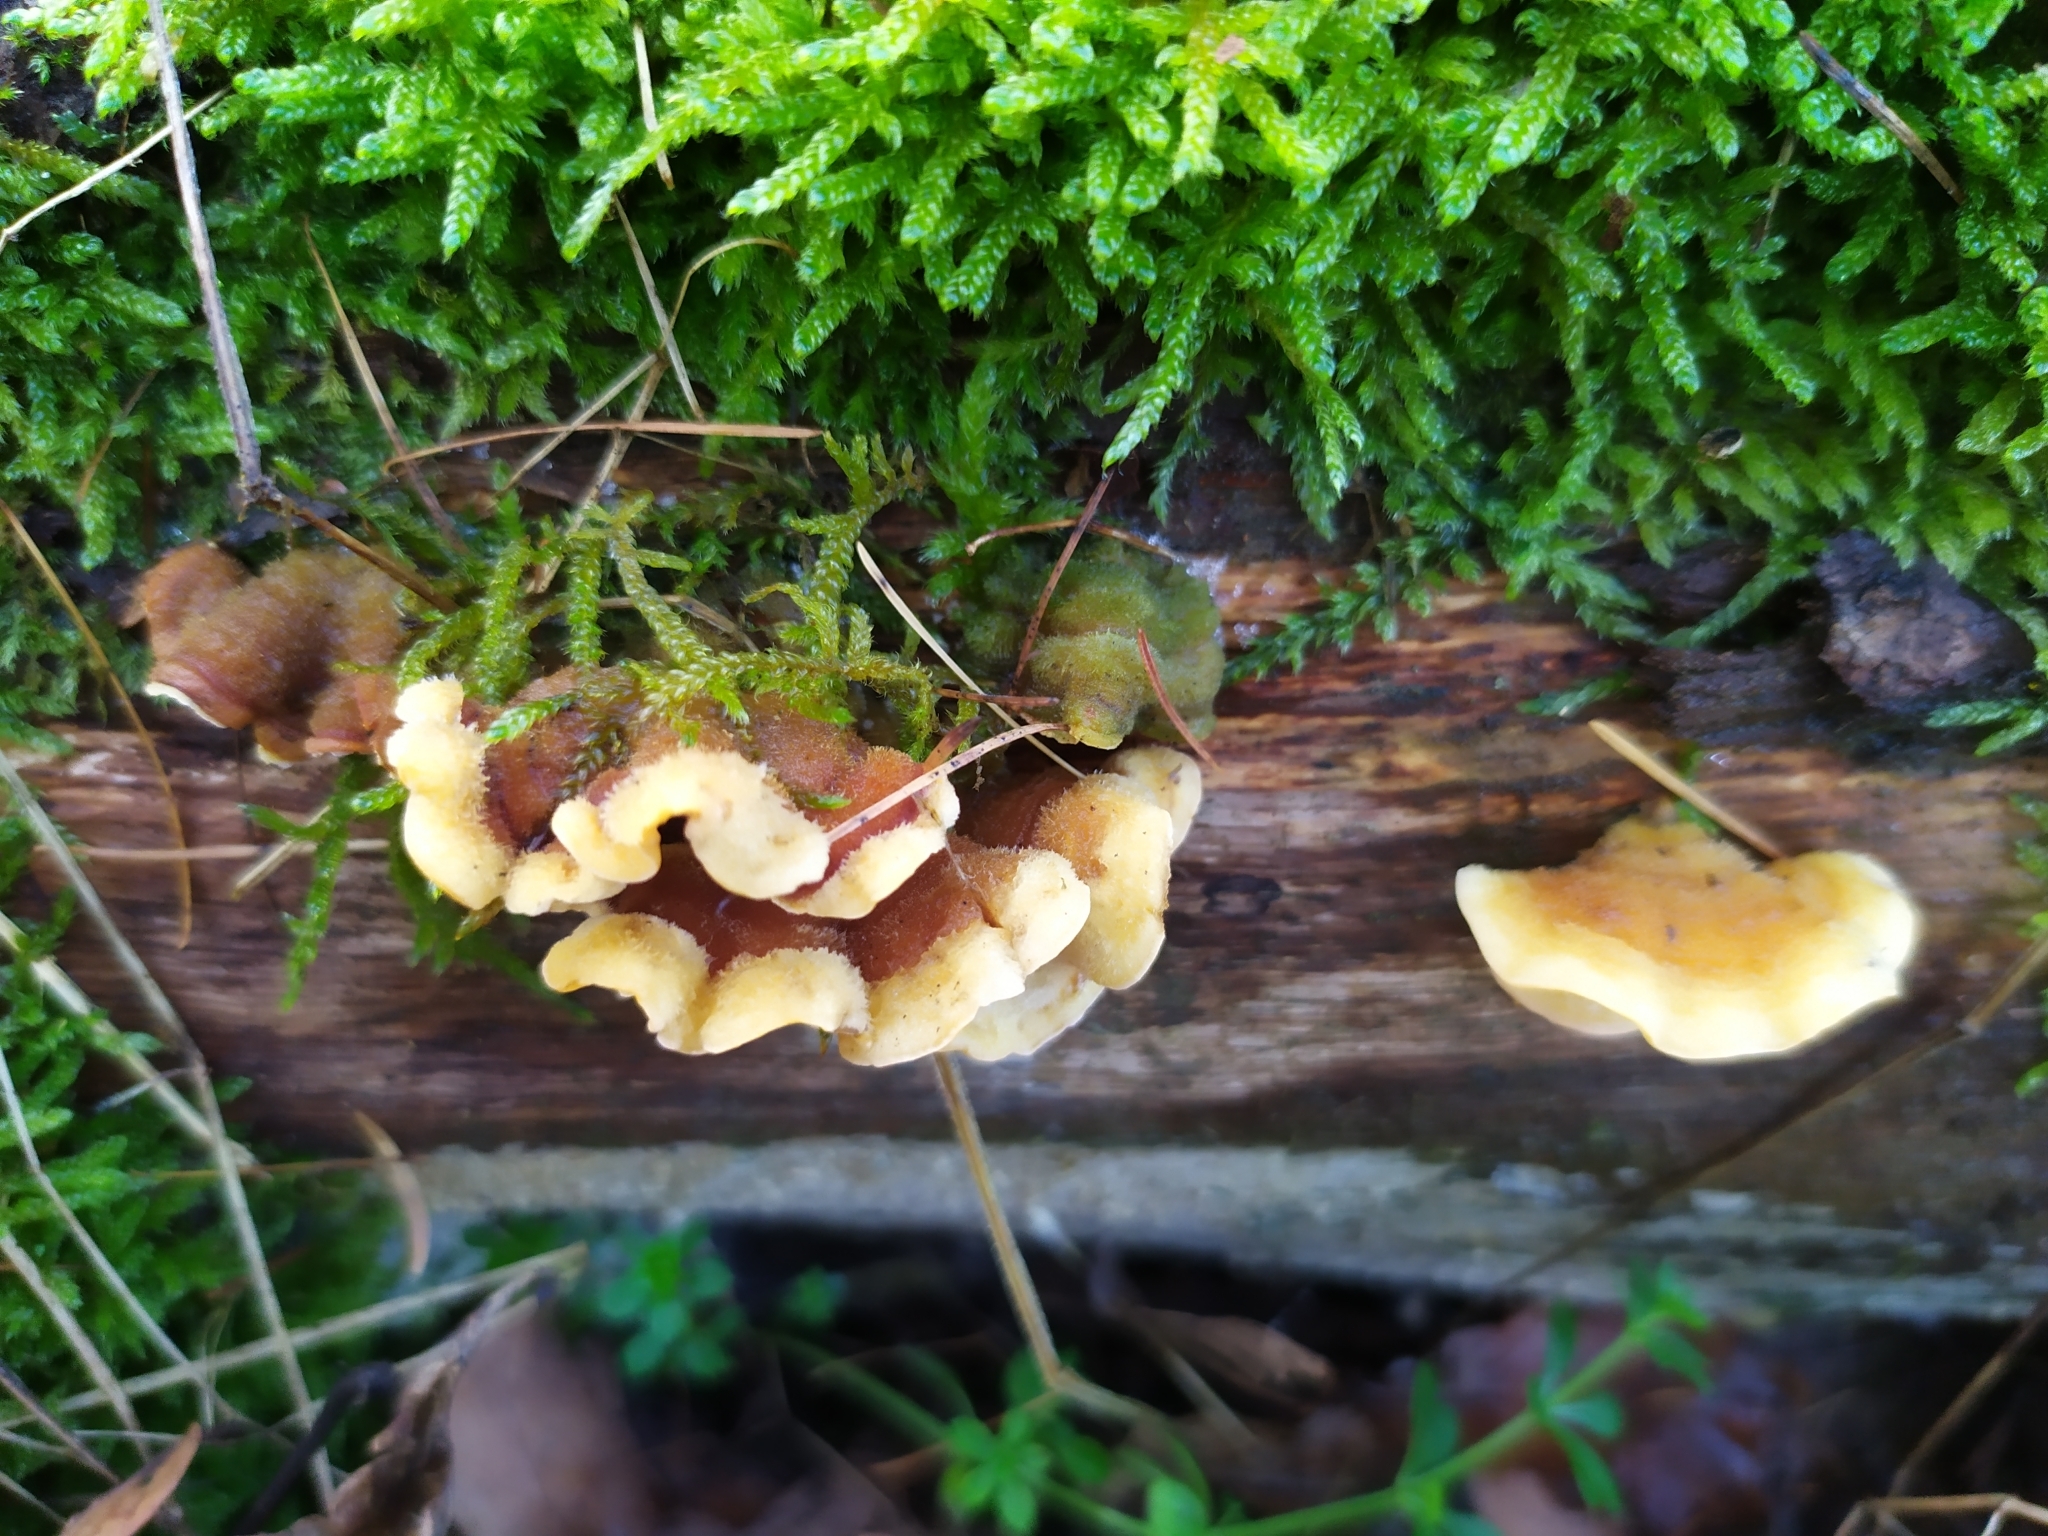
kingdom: Fungi
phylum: Basidiomycota
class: Agaricomycetes
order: Russulales
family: Stereaceae
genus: Stereum
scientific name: Stereum hirsutum
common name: Hairy curtain crust
